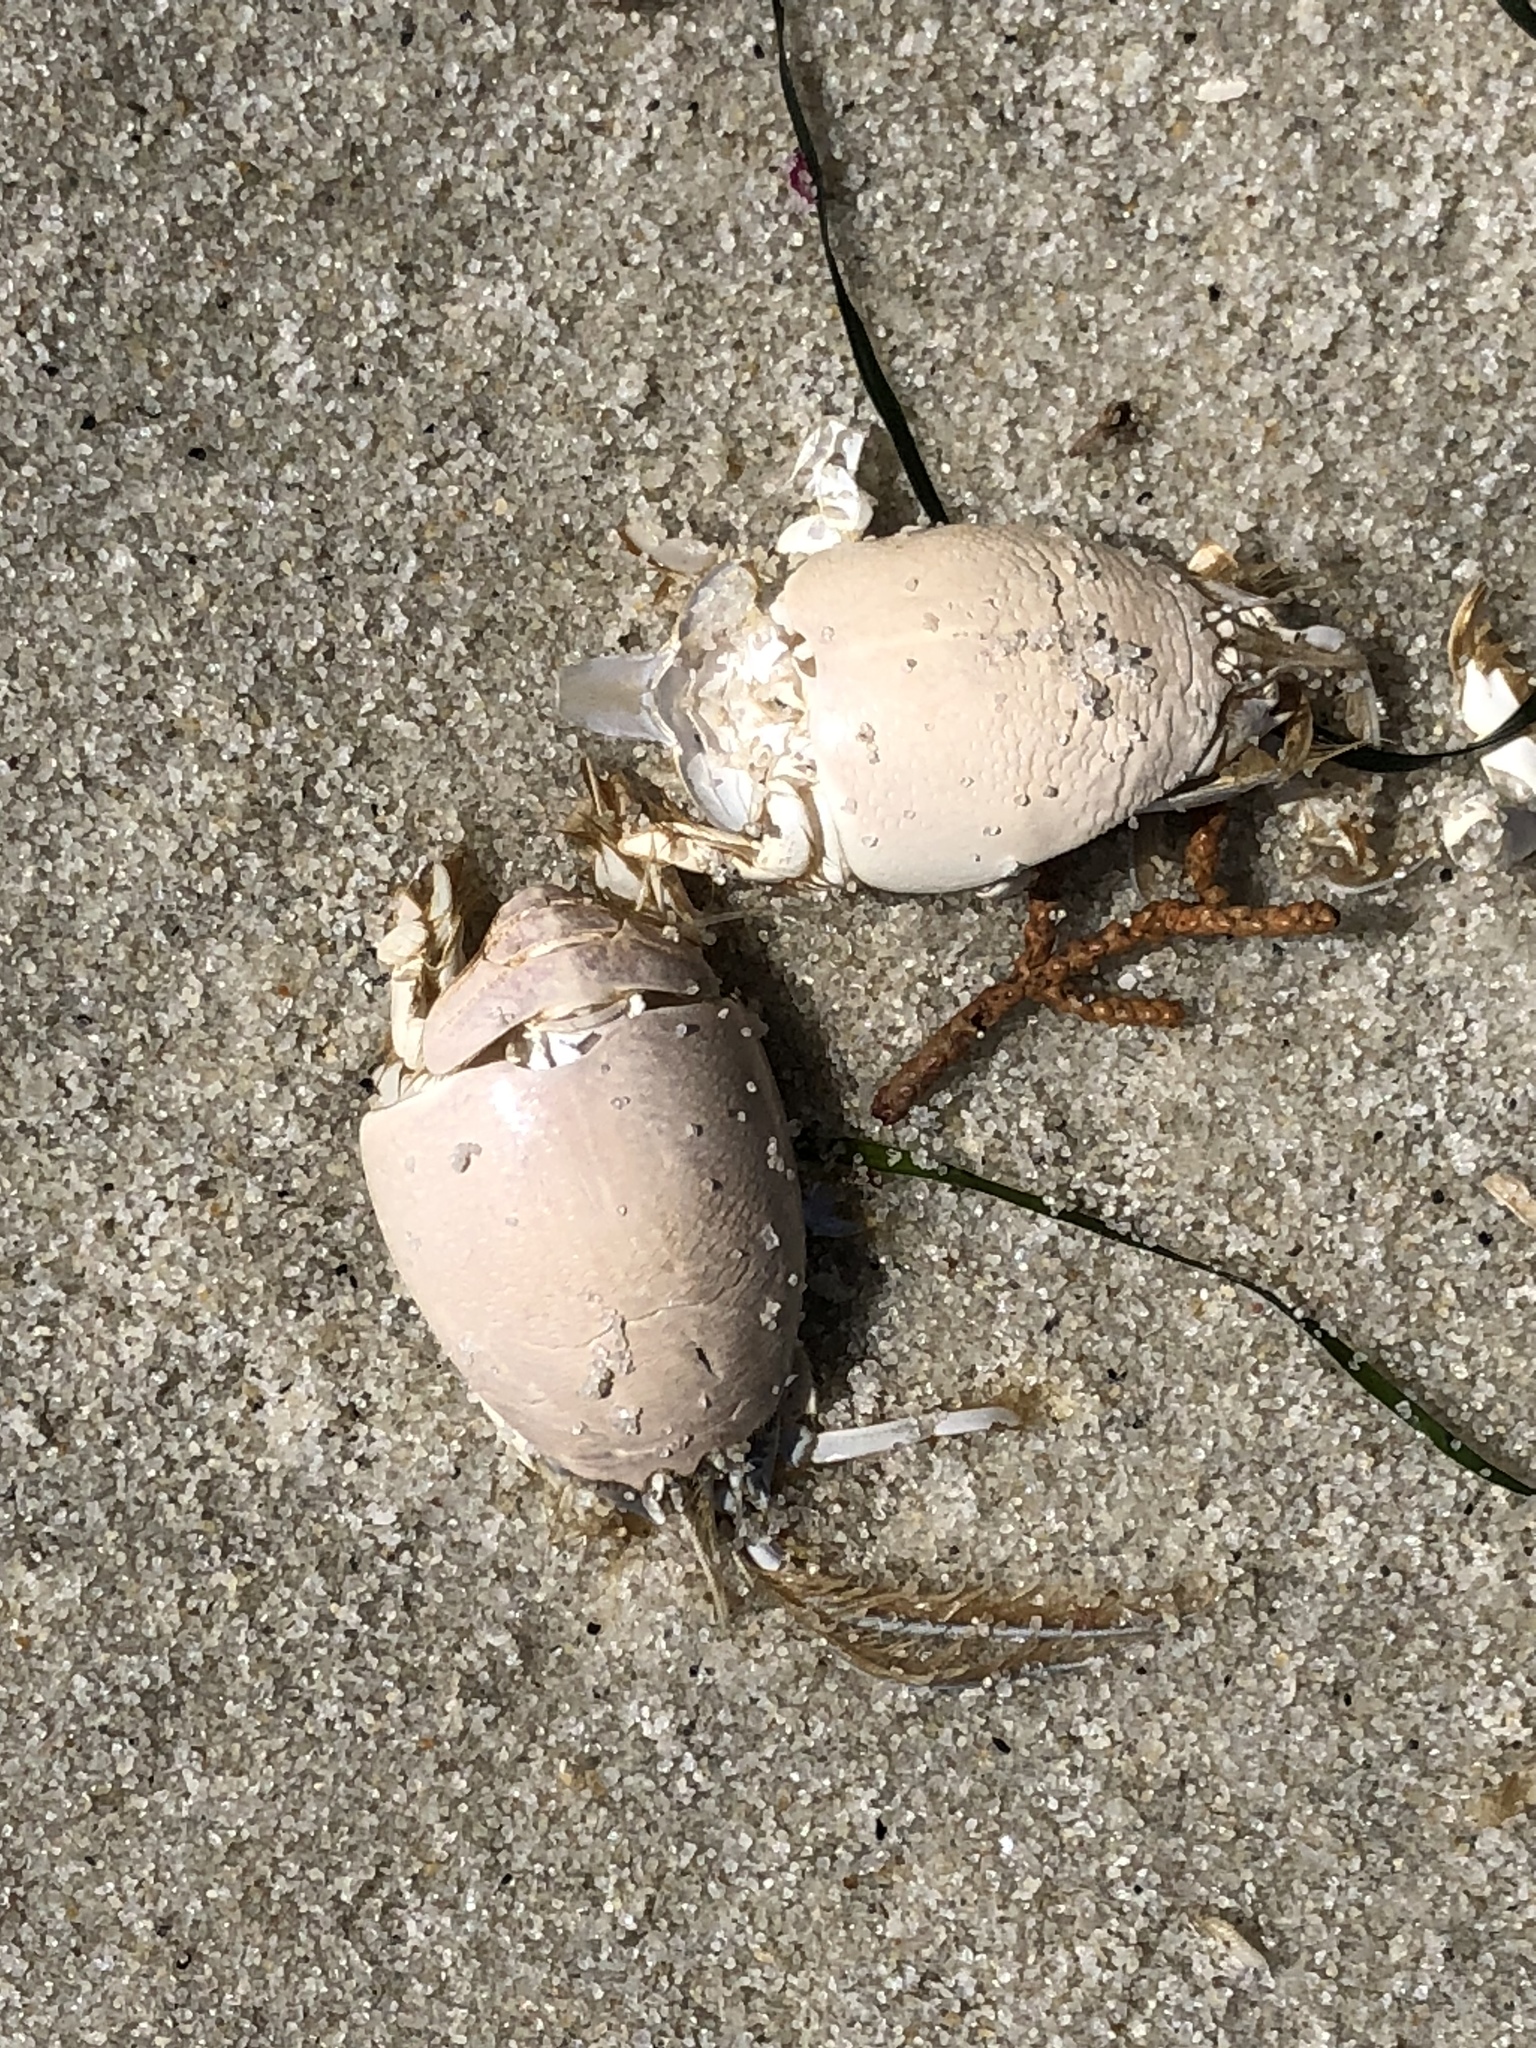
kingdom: Animalia
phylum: Arthropoda
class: Malacostraca
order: Decapoda
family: Hippidae
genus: Emerita
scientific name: Emerita analoga
